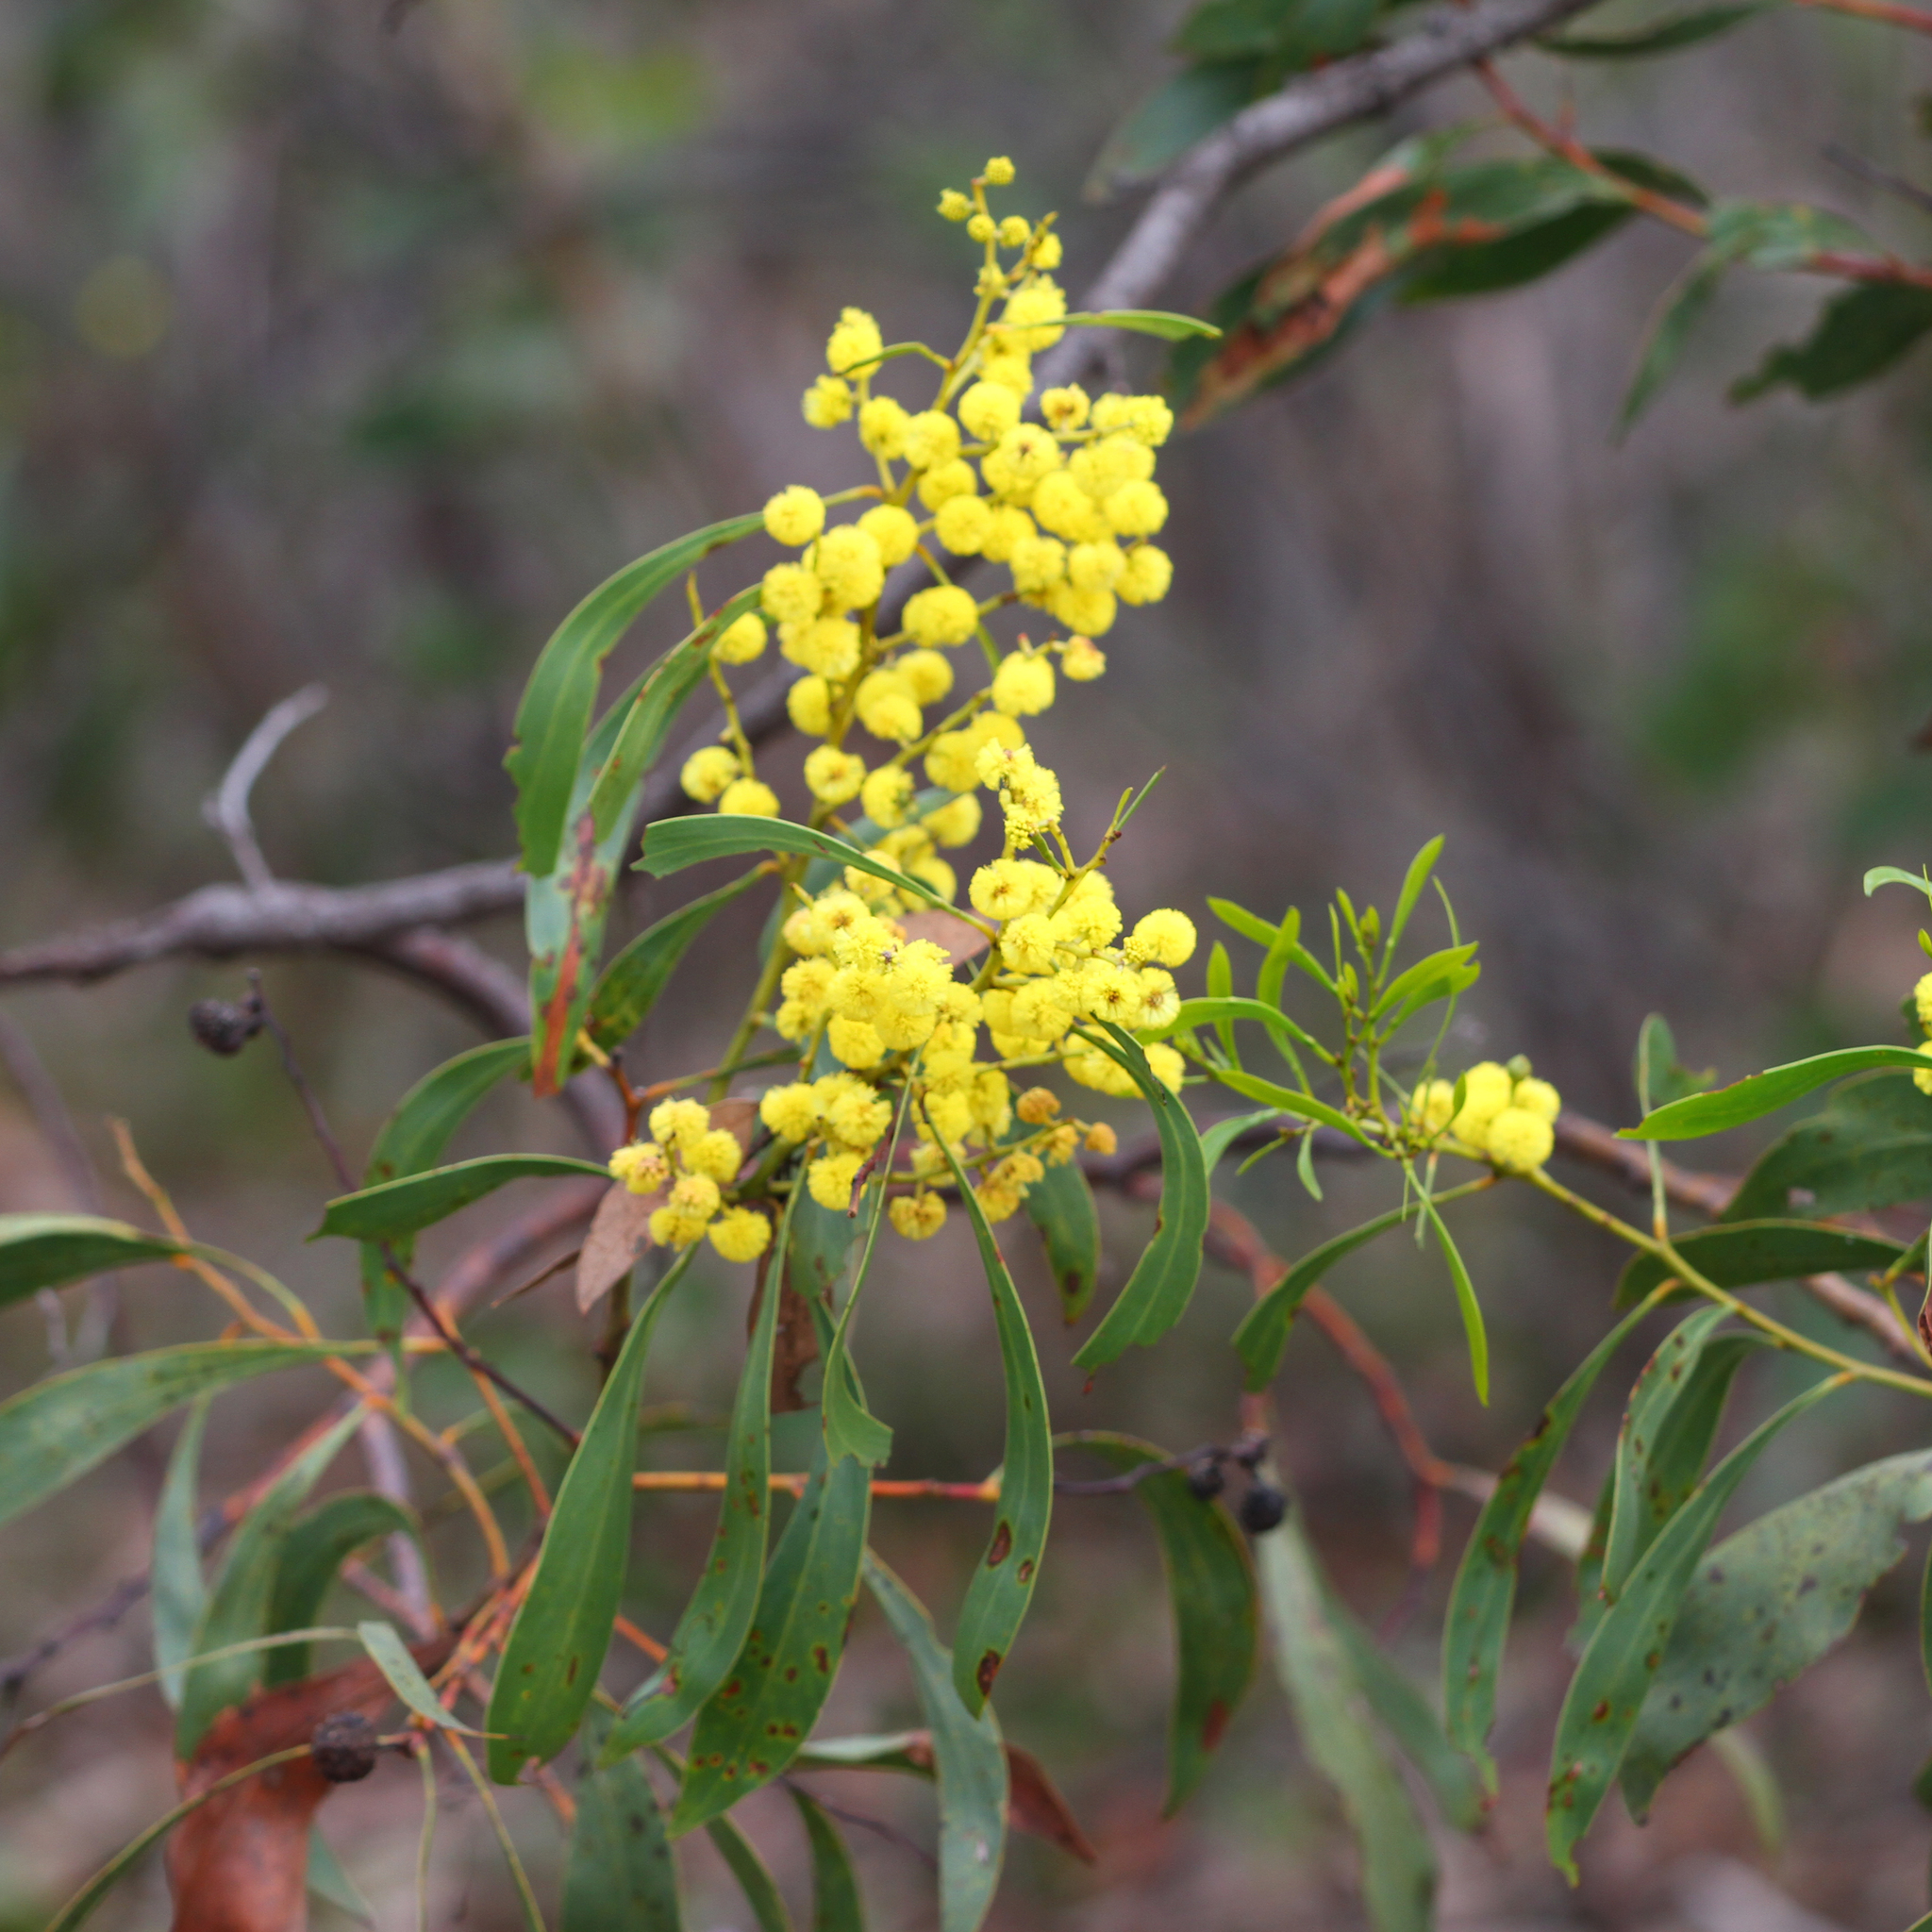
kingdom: Plantae
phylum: Tracheophyta
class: Magnoliopsida
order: Fabales
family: Fabaceae
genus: Acacia
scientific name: Acacia pycnantha
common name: Golden wattle
